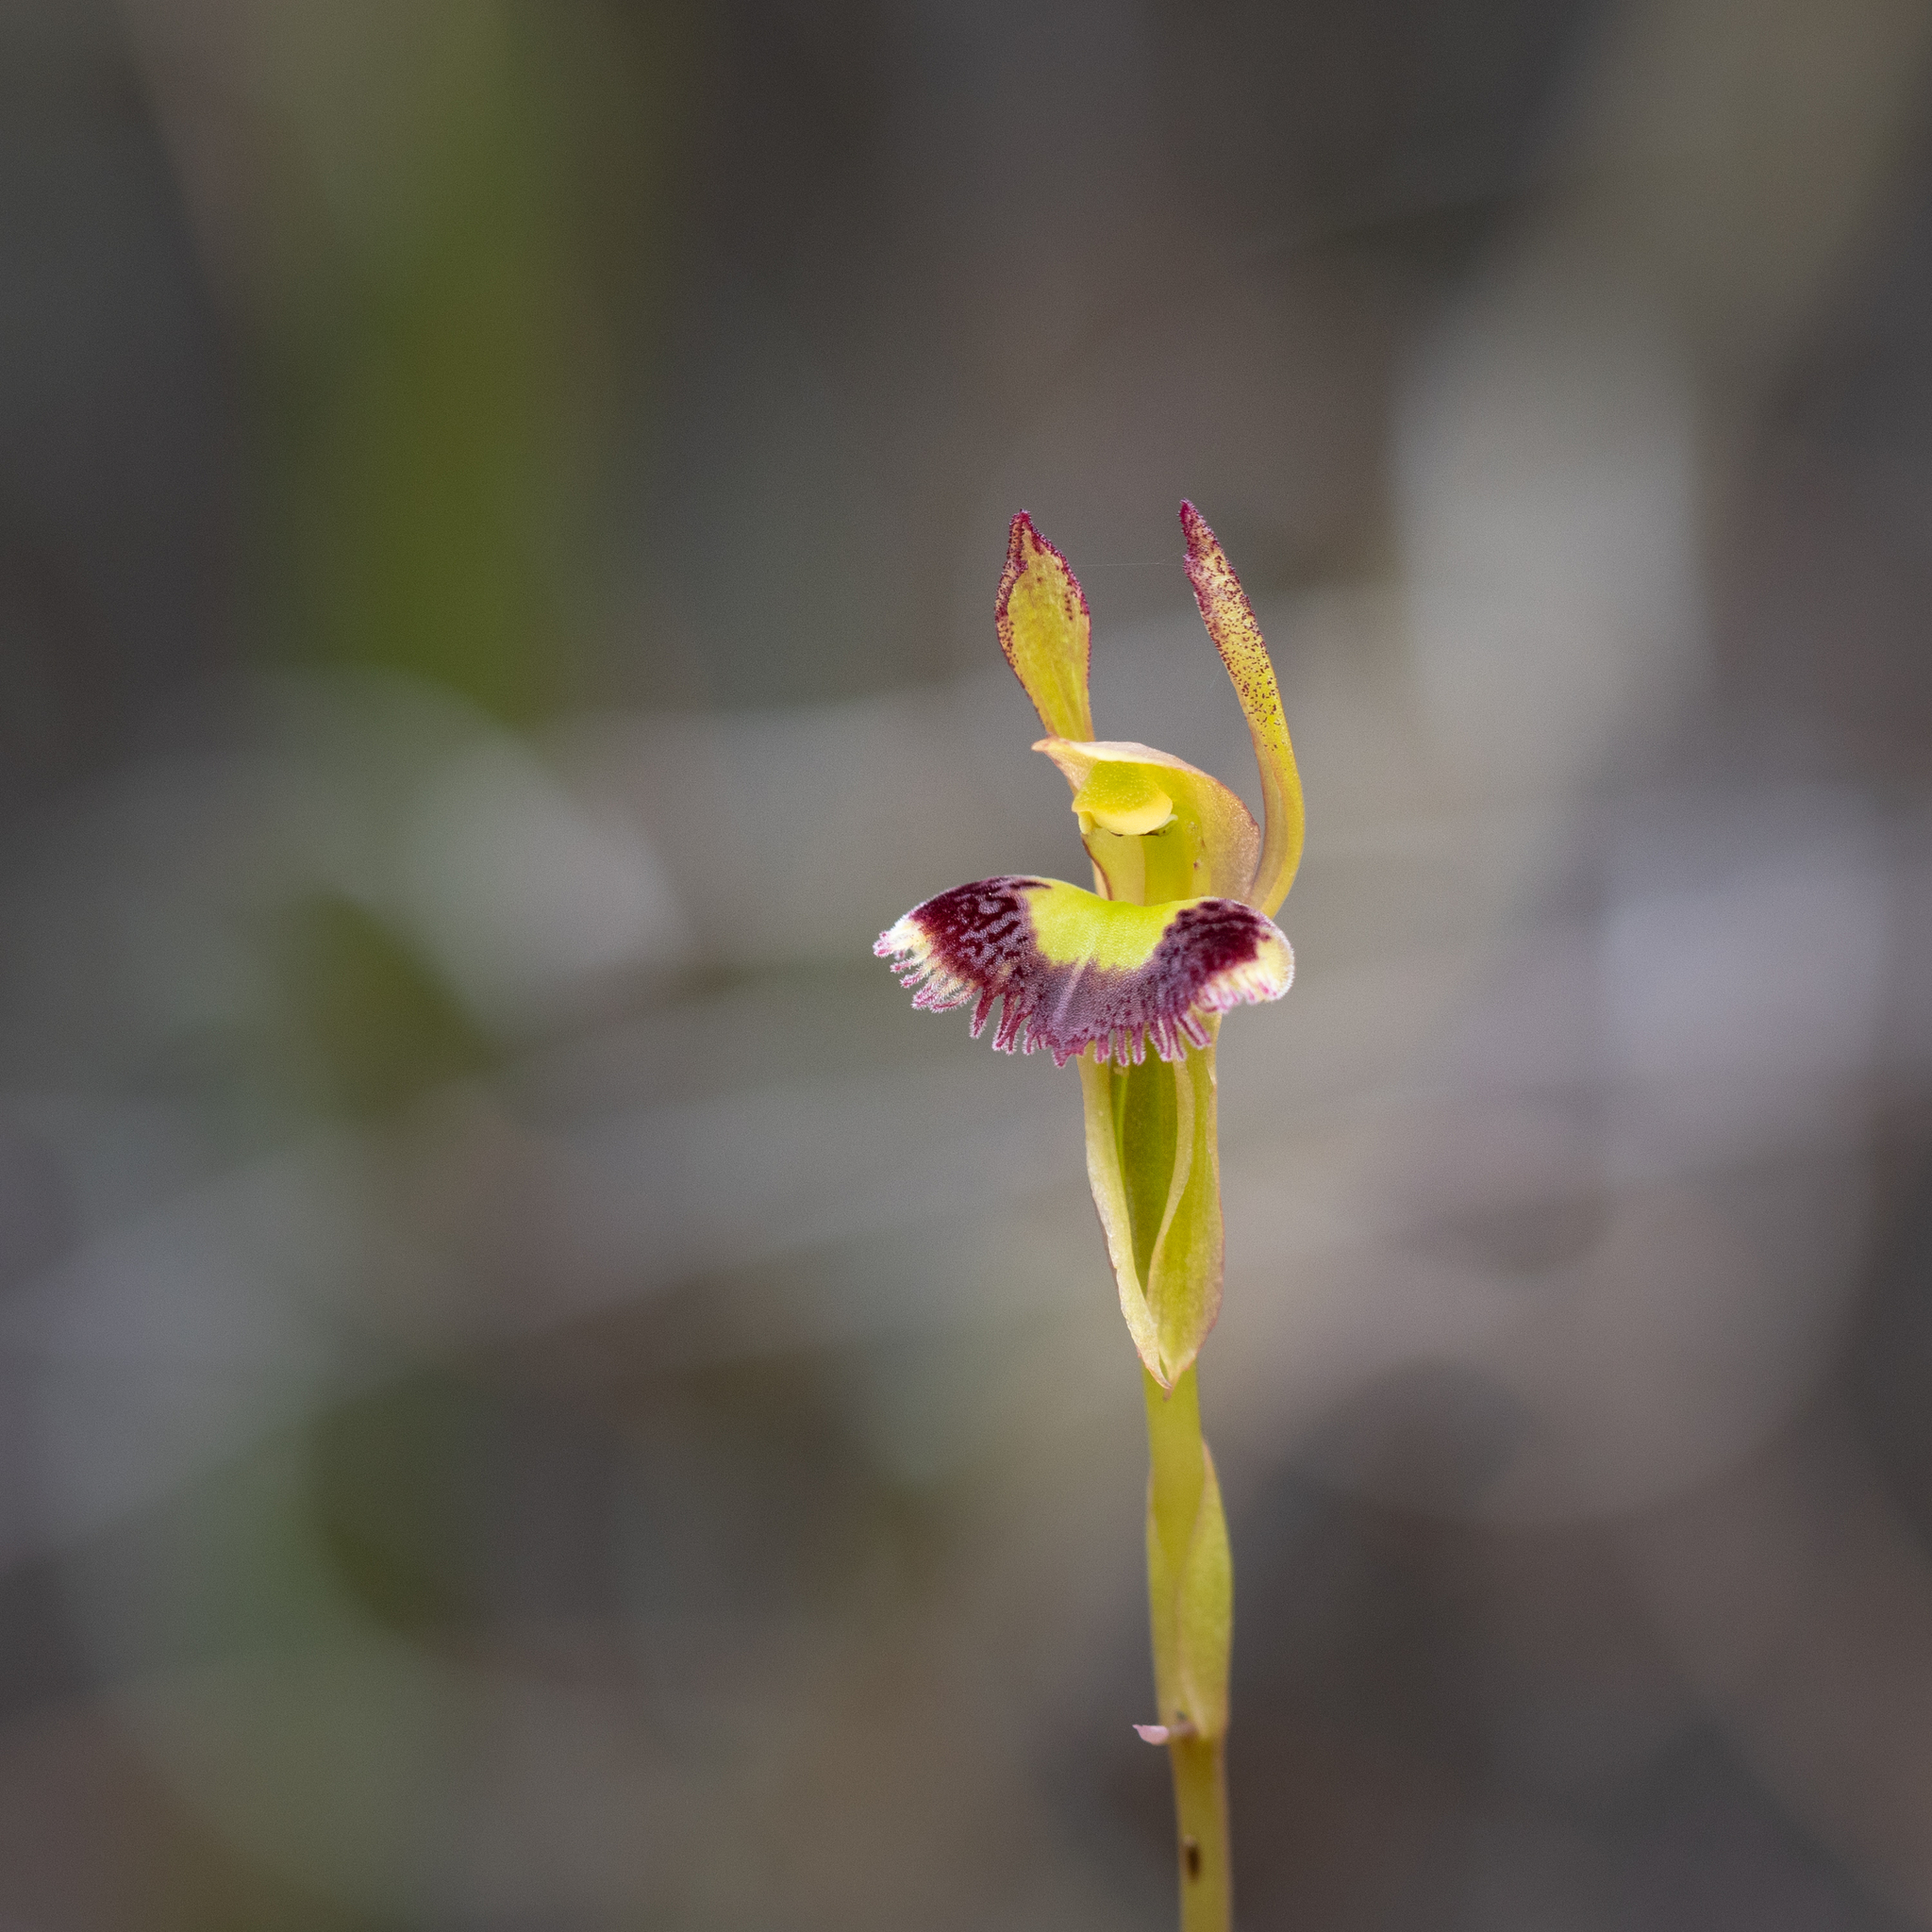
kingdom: Plantae
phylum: Tracheophyta
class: Liliopsida
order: Asparagales
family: Orchidaceae
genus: Leporella
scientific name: Leporella fimbriata
